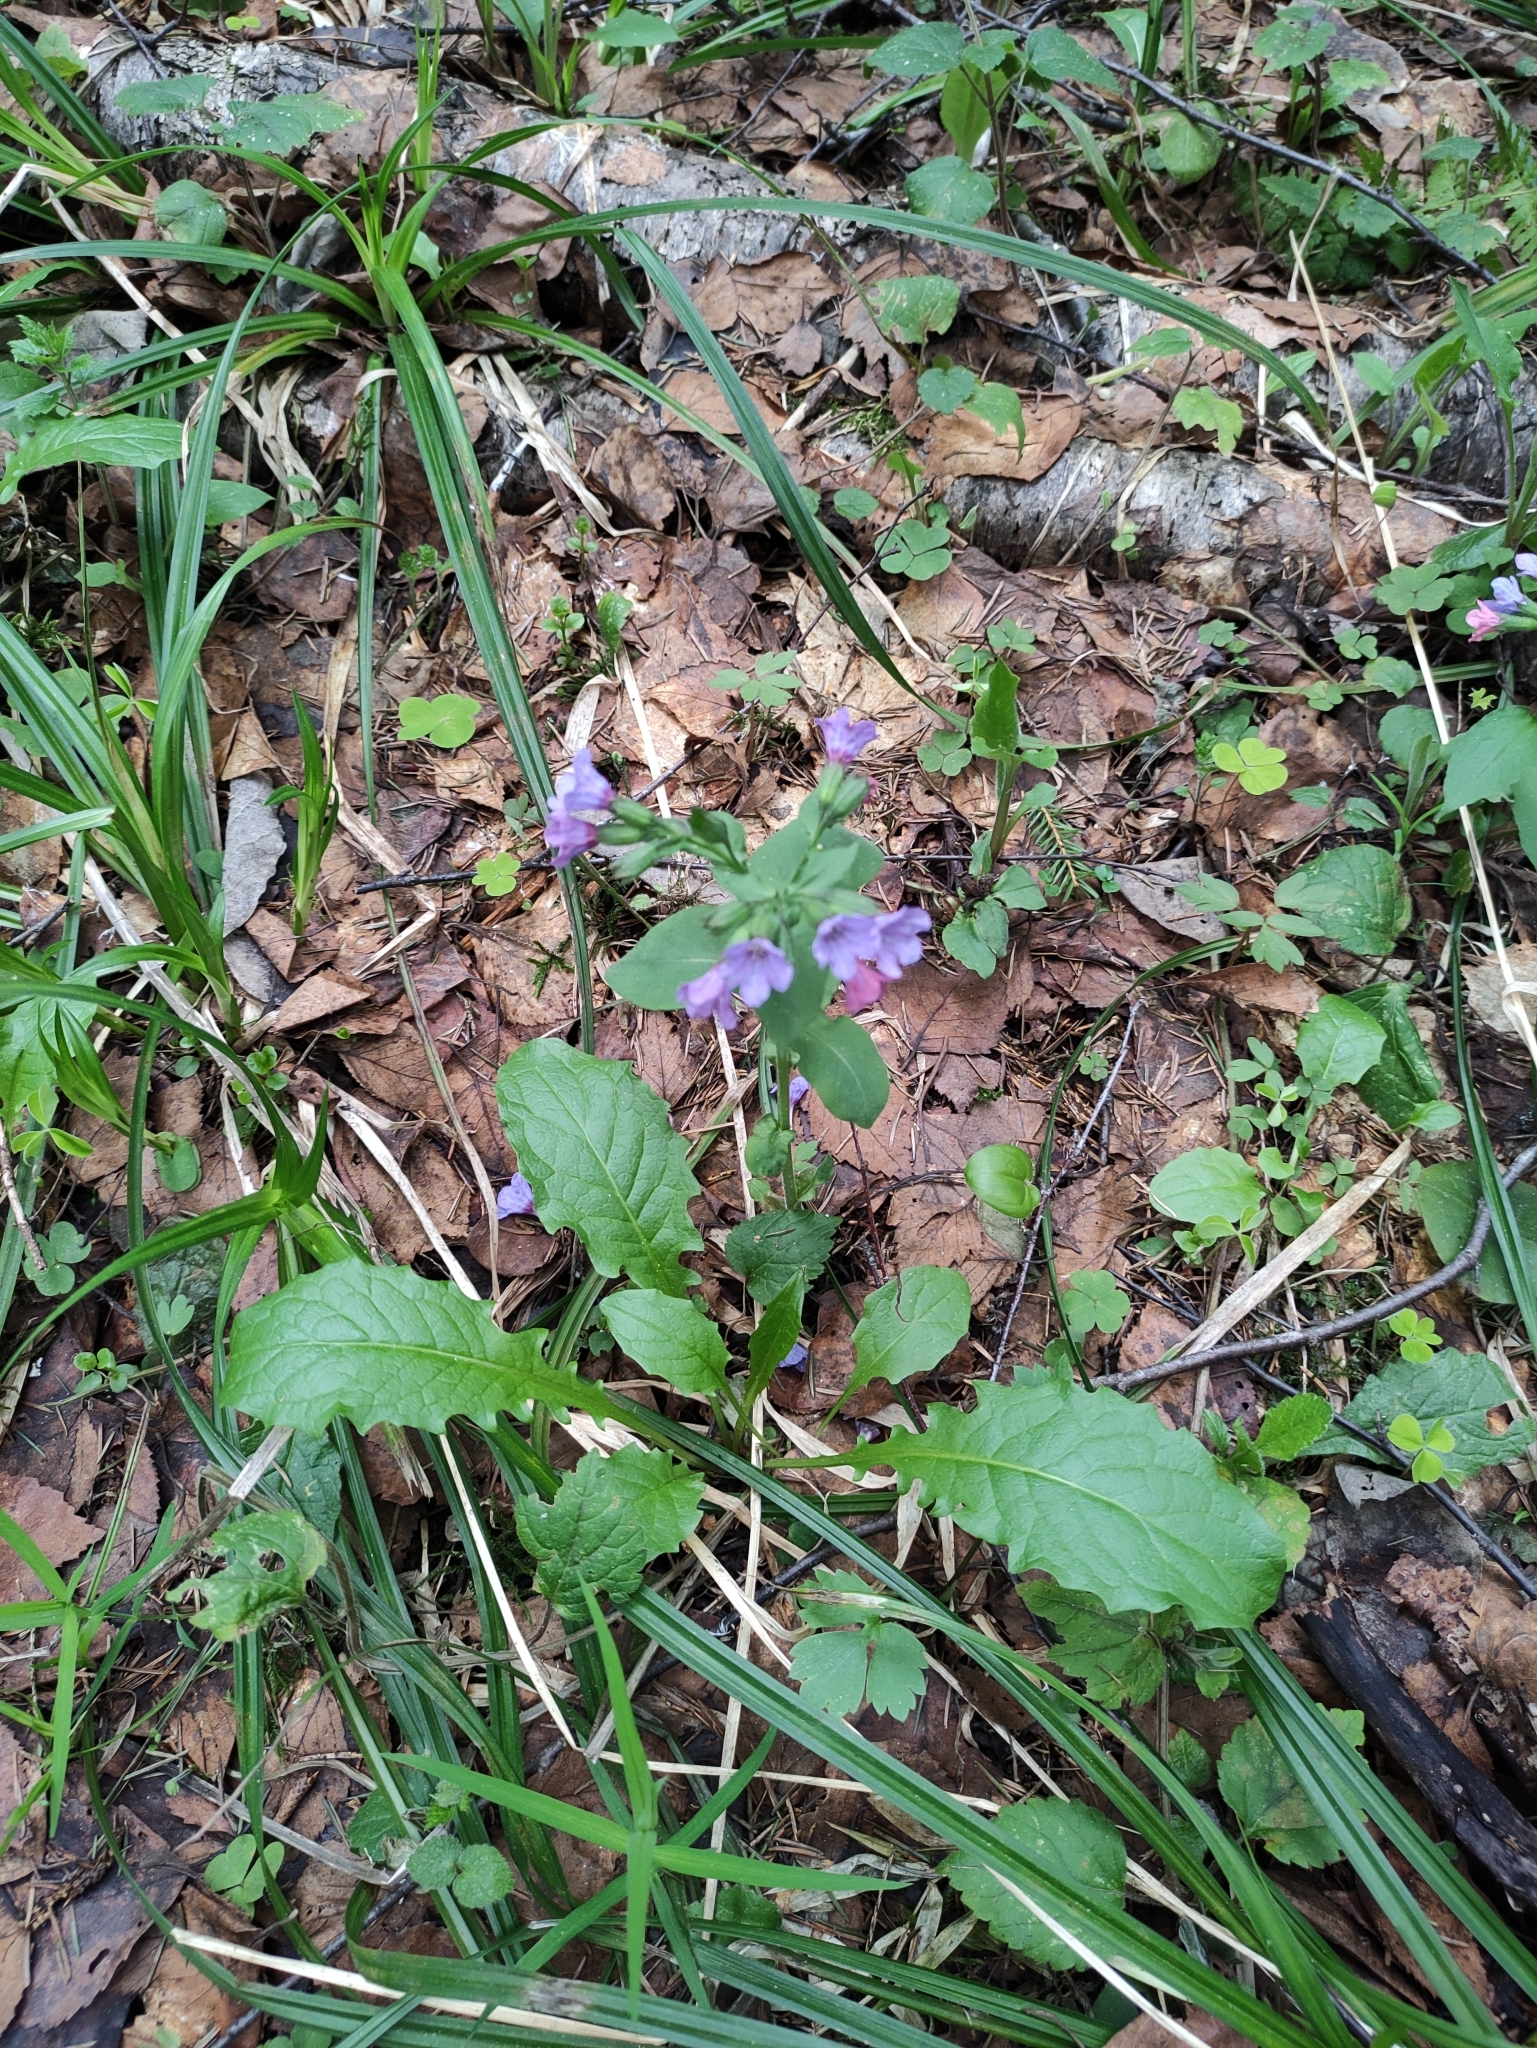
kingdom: Plantae
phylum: Tracheophyta
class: Magnoliopsida
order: Boraginales
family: Boraginaceae
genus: Pulmonaria
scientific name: Pulmonaria obscura
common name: Suffolk lungwort
